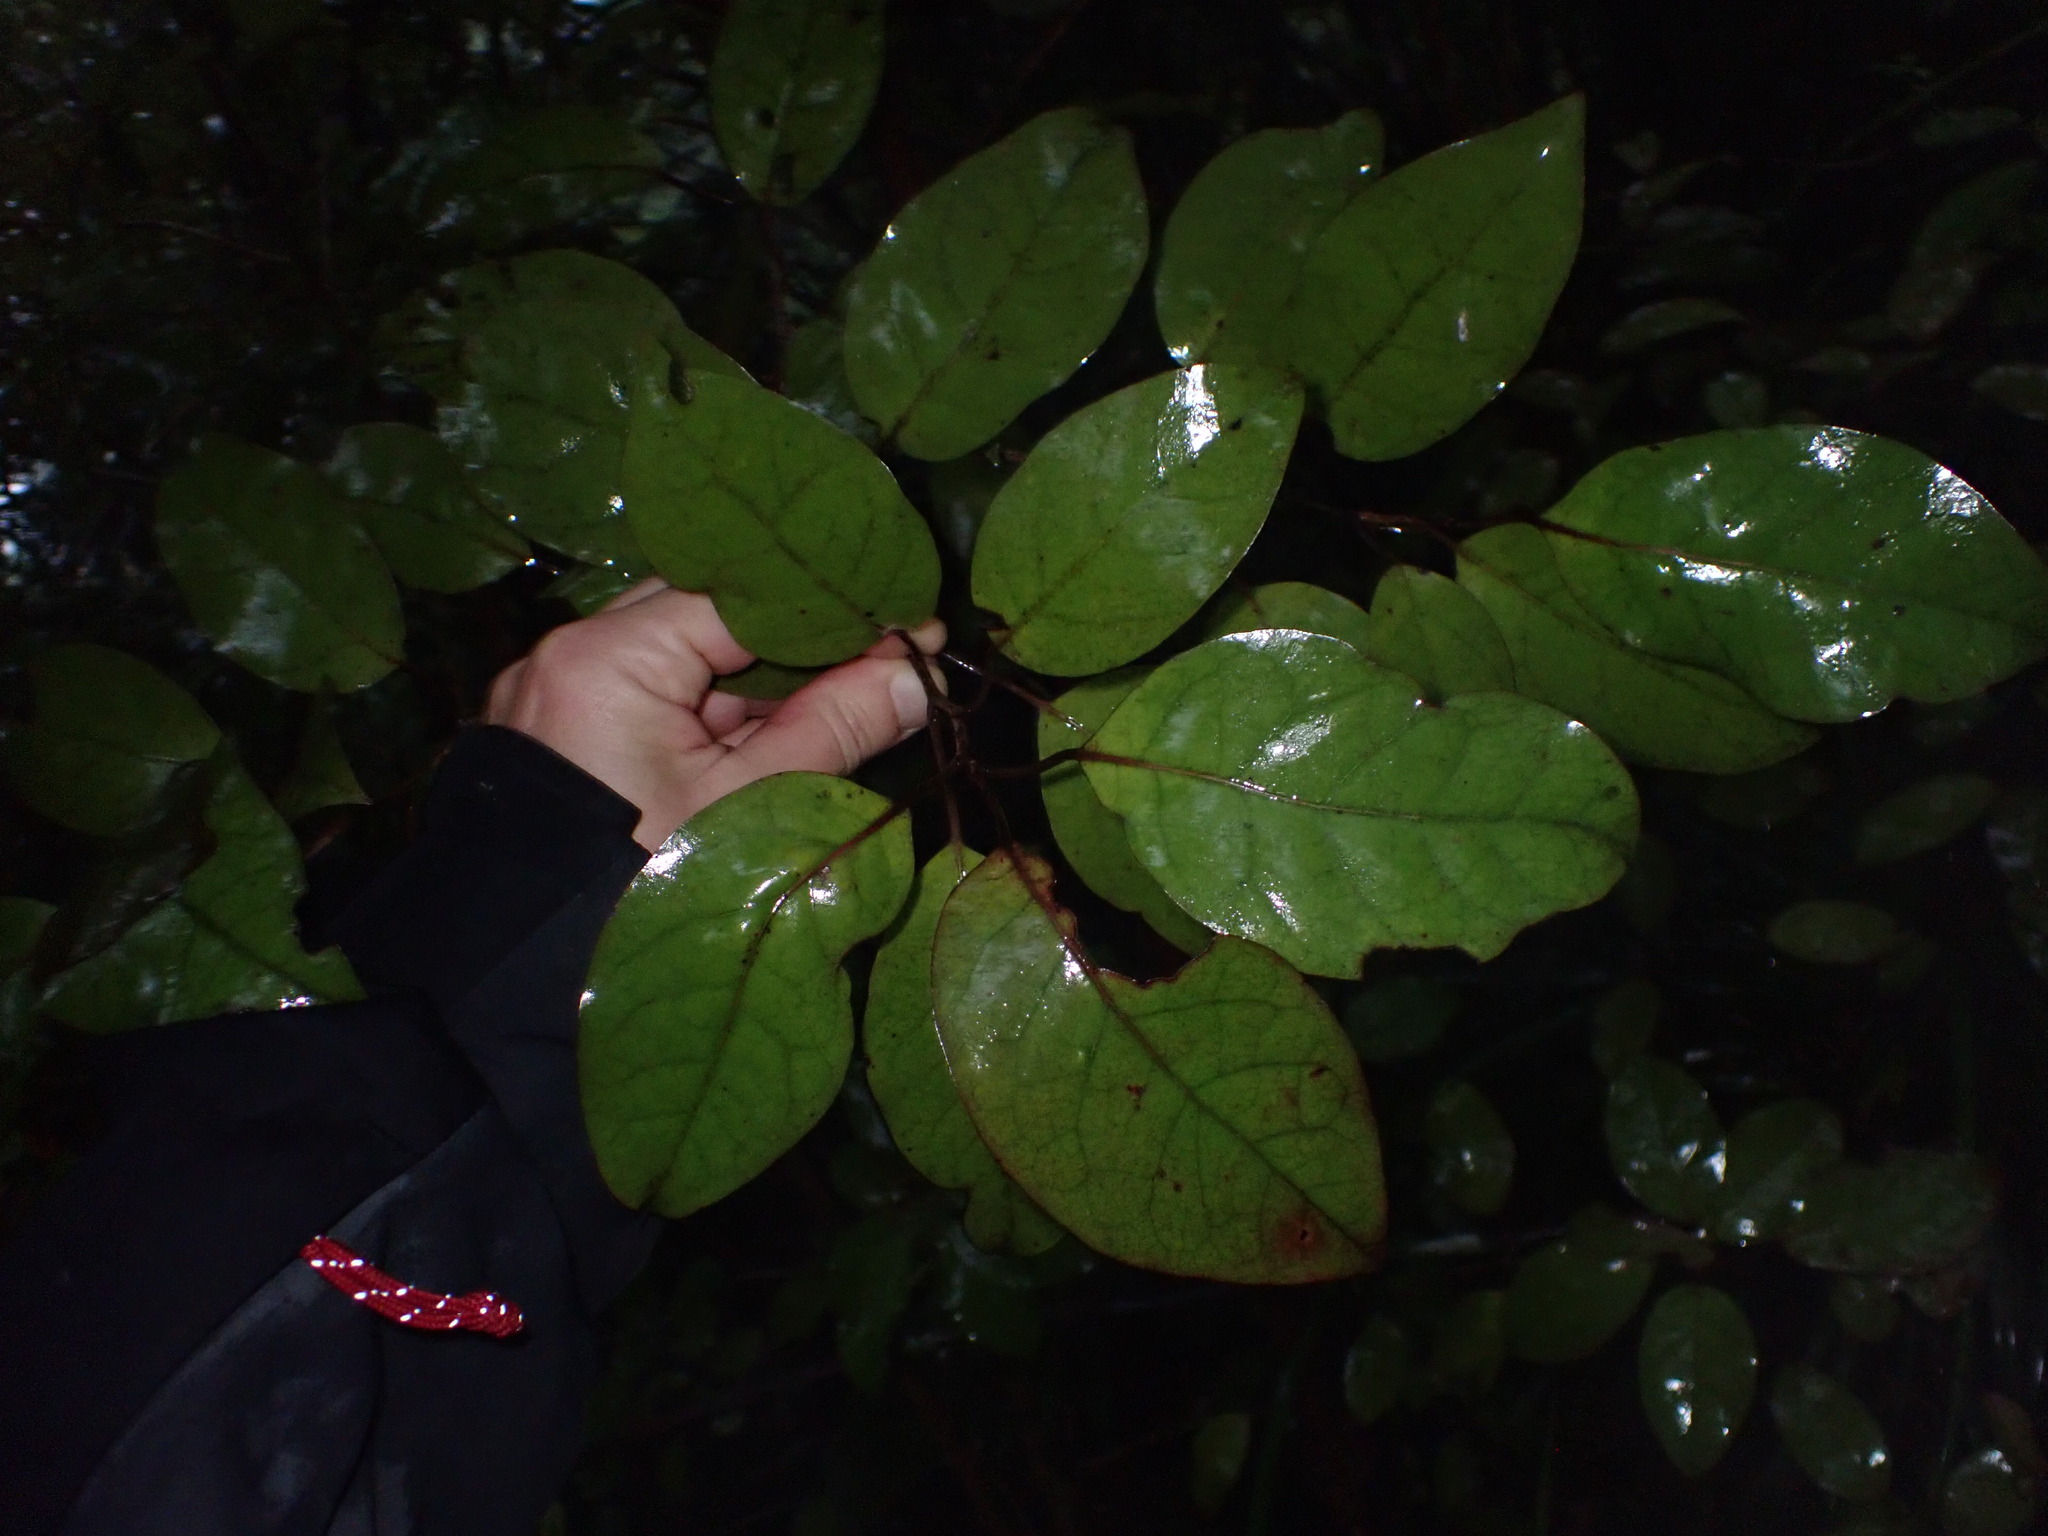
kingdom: Plantae
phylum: Tracheophyta
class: Magnoliopsida
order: Laurales
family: Lauraceae
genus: Litsea
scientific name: Litsea calicaris
